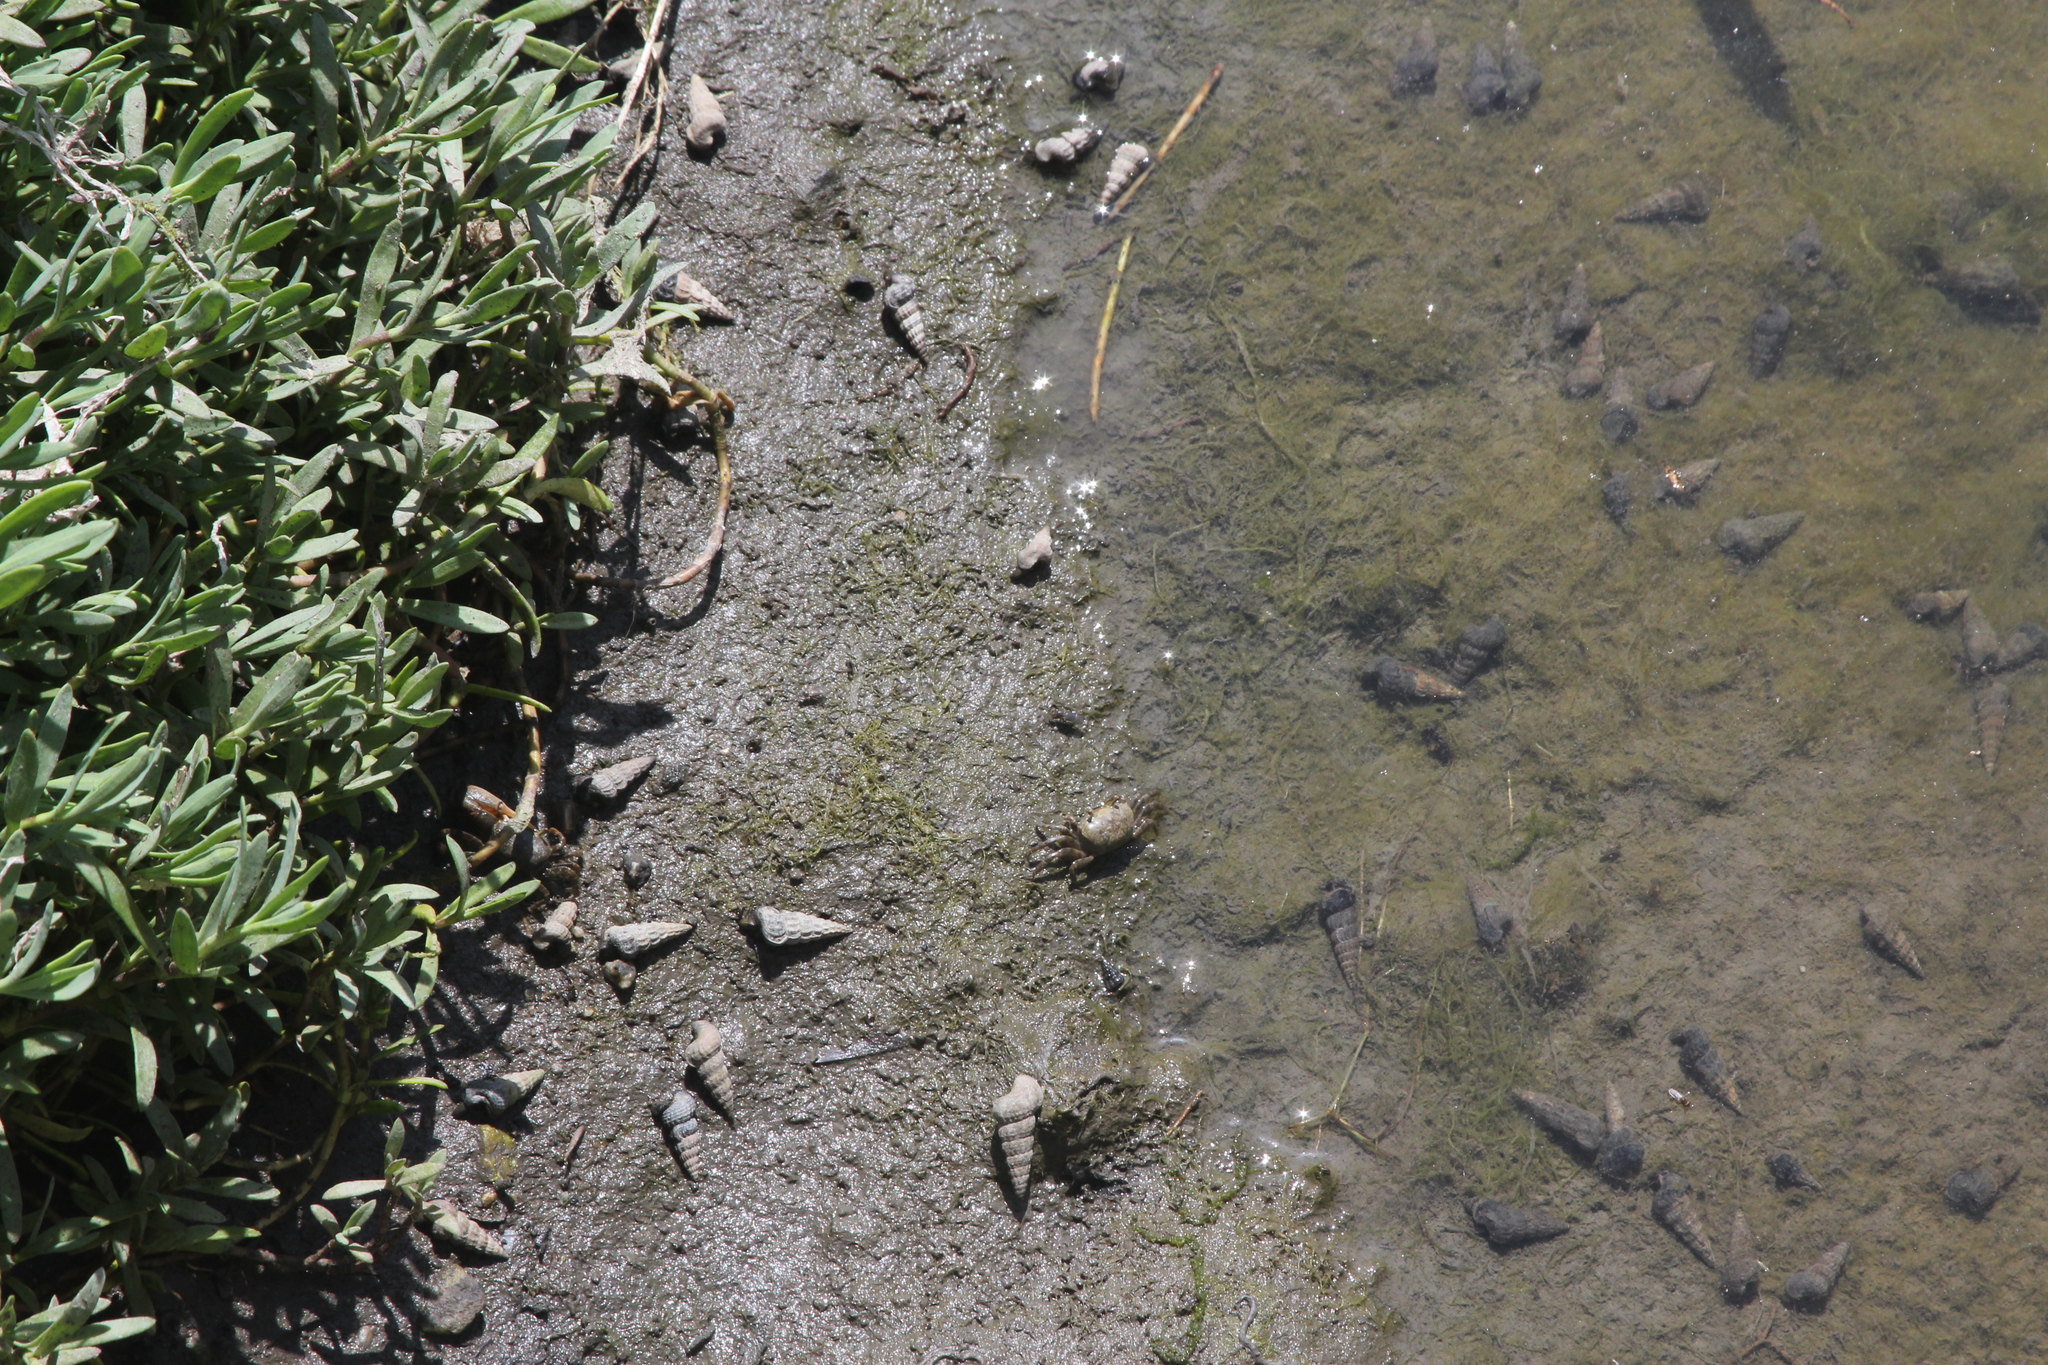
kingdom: Animalia
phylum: Mollusca
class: Gastropoda
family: Potamididae
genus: Cerithideopsis
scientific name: Cerithideopsis californica
